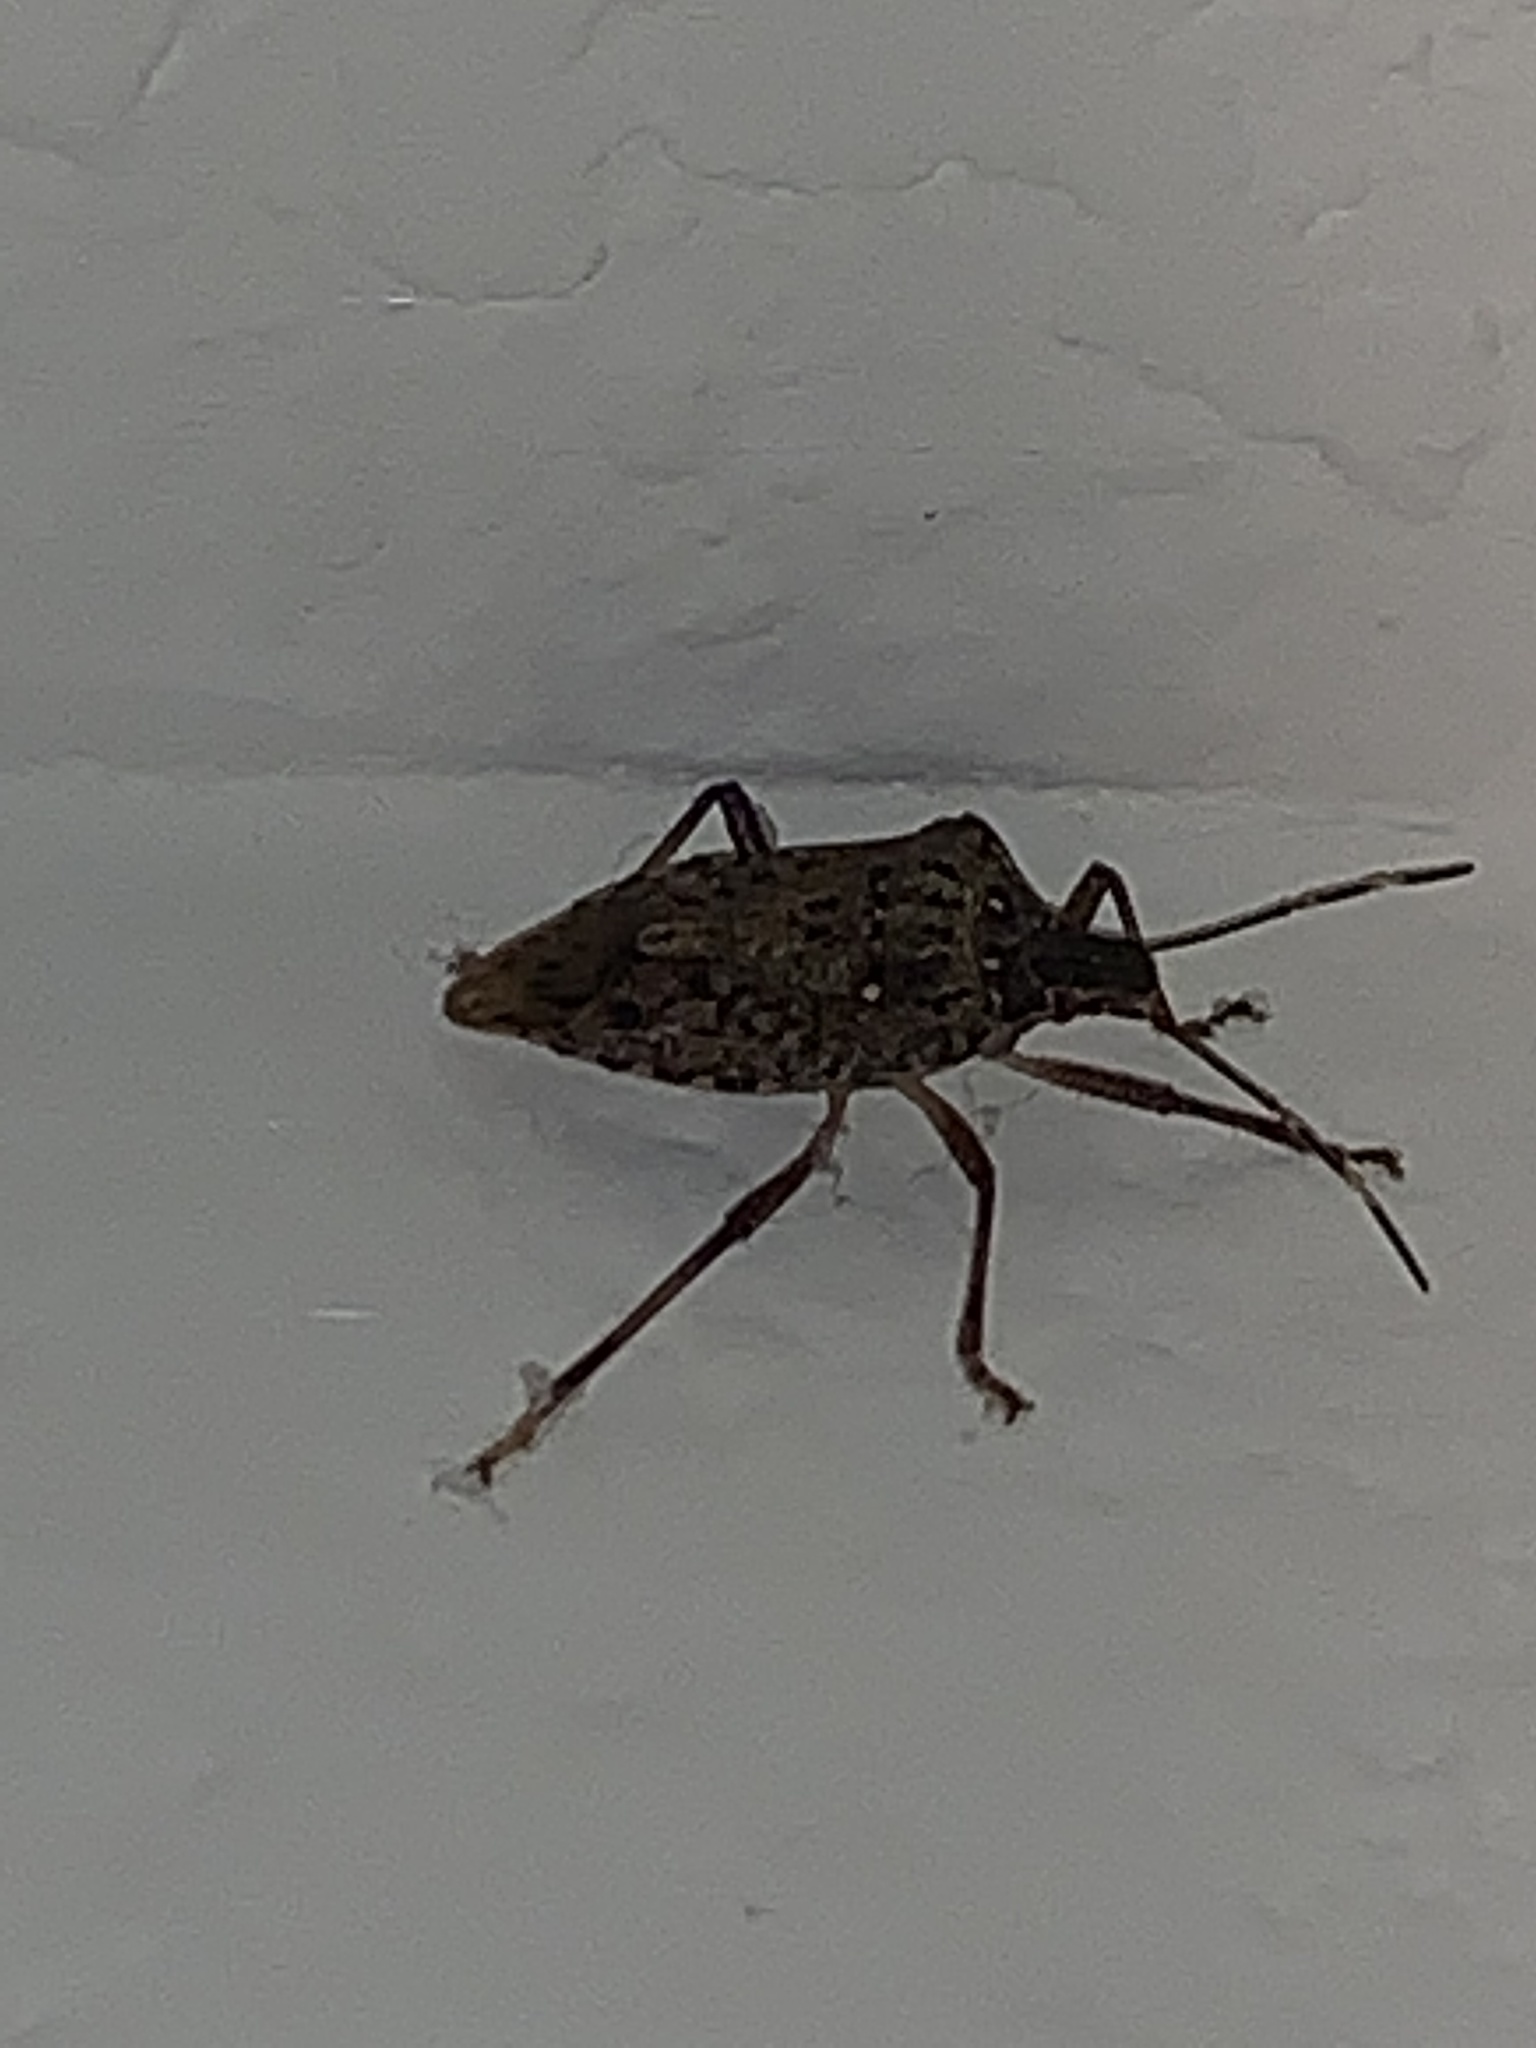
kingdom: Animalia
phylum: Arthropoda
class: Insecta
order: Hemiptera
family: Pentatomidae
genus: Halyomorpha
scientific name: Halyomorpha halys
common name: Brown marmorated stink bug
